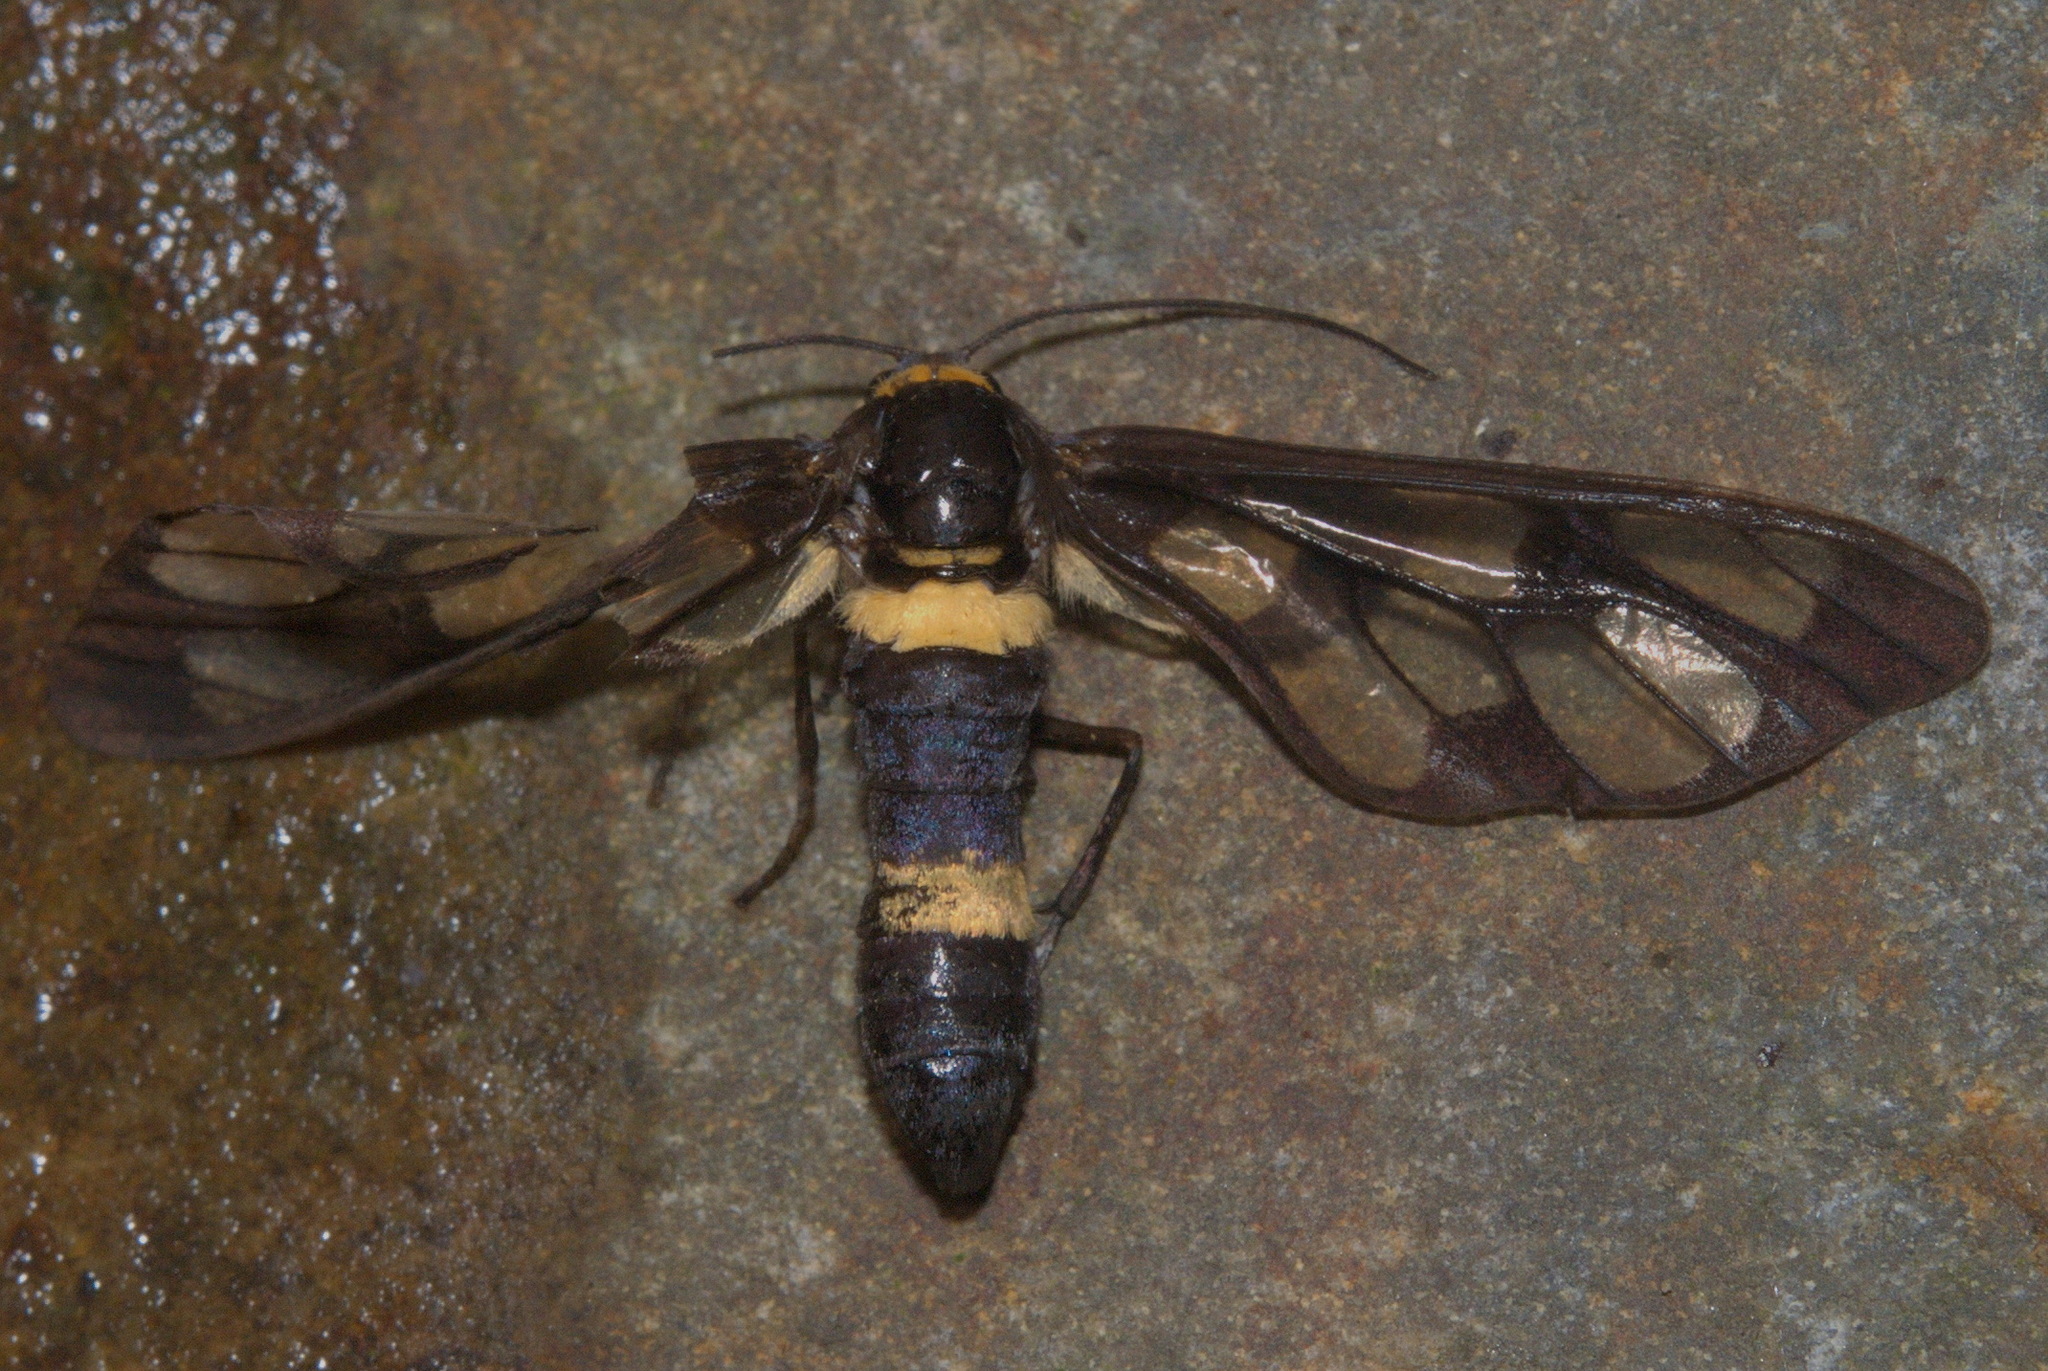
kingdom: Animalia
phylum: Arthropoda
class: Insecta
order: Lepidoptera
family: Erebidae
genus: Syntomoides
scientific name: Syntomoides imaon
